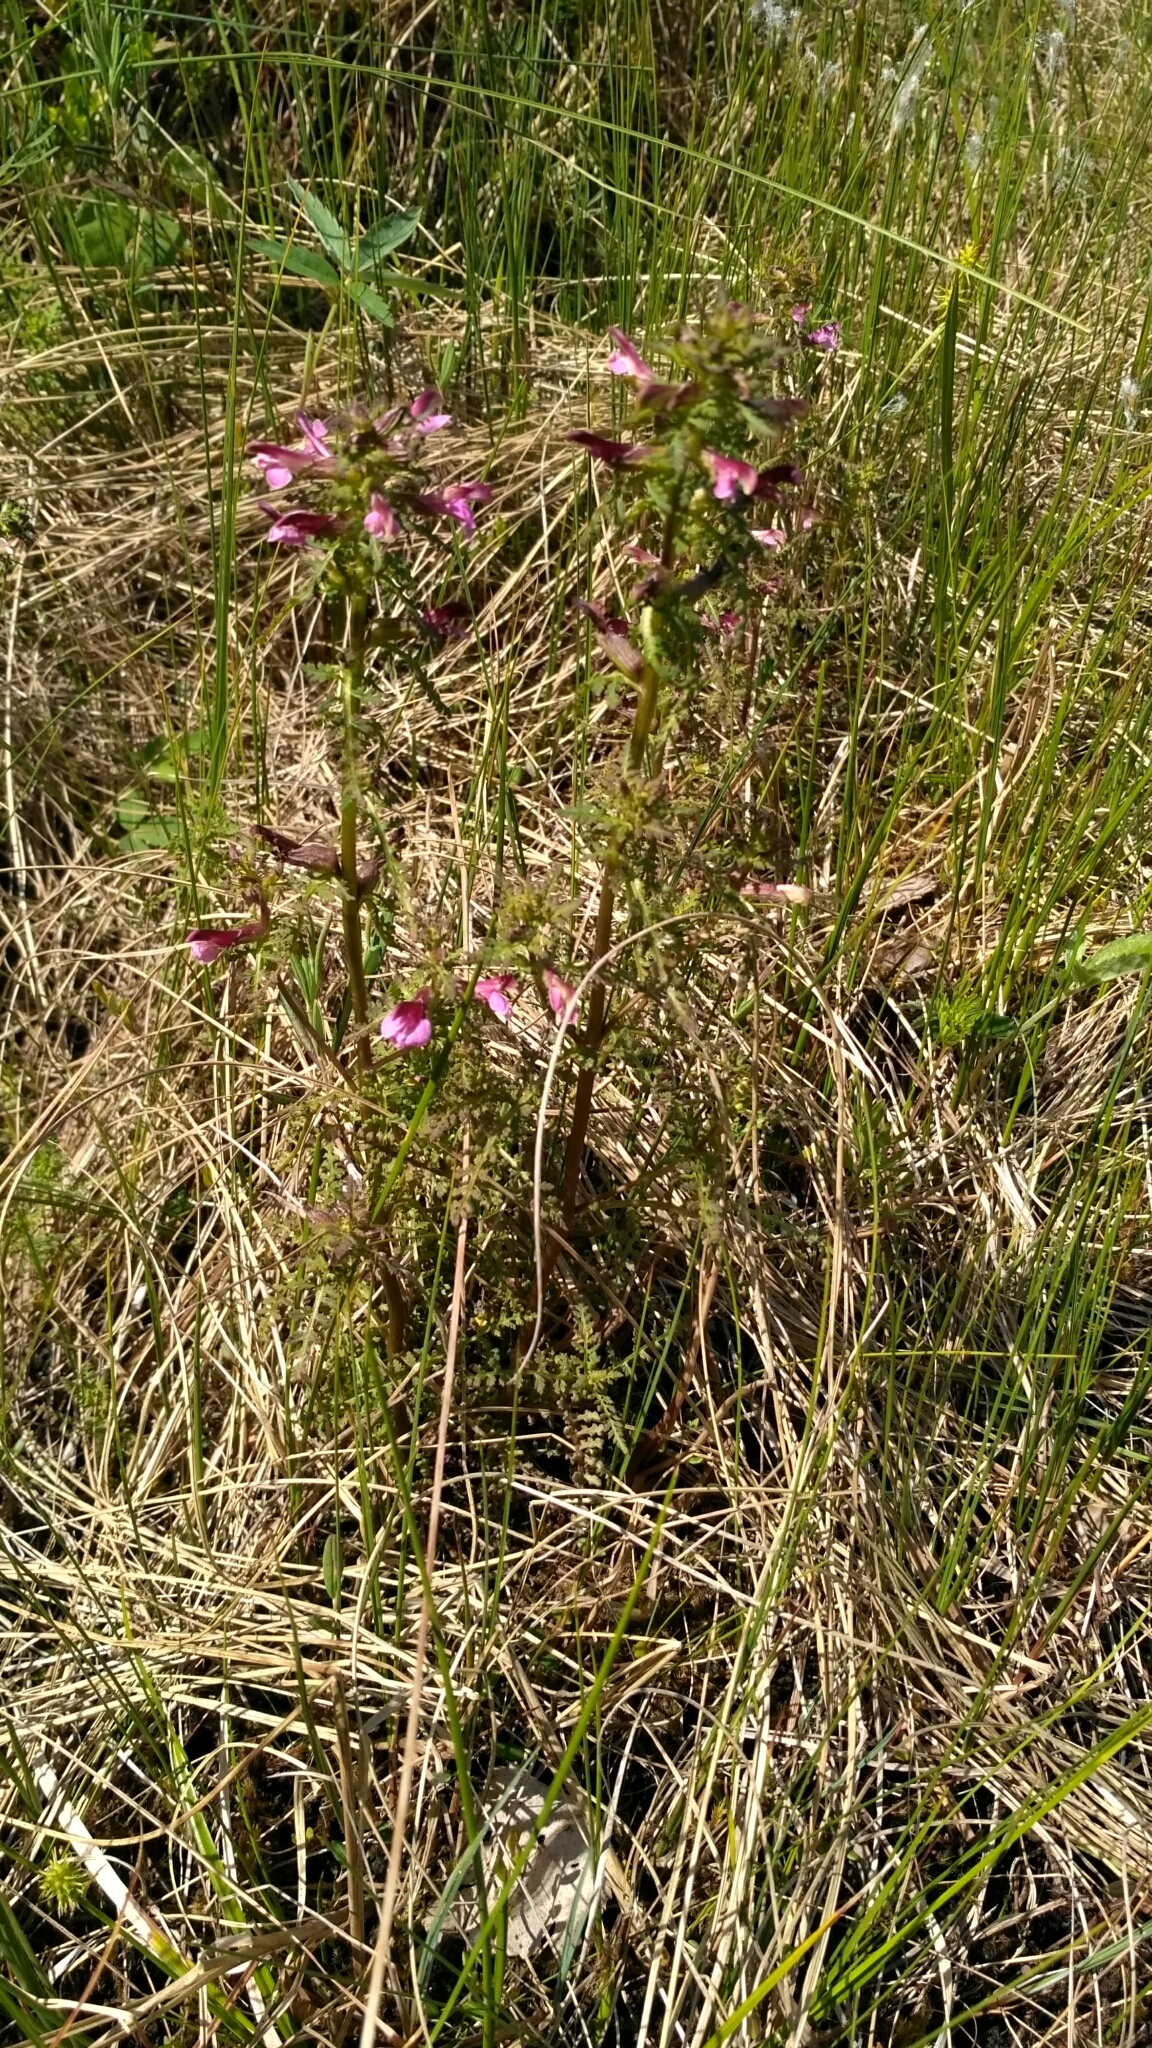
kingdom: Plantae
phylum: Tracheophyta
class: Magnoliopsida
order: Lamiales
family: Orobanchaceae
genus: Pedicularis
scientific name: Pedicularis palustris
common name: Marsh lousewort
